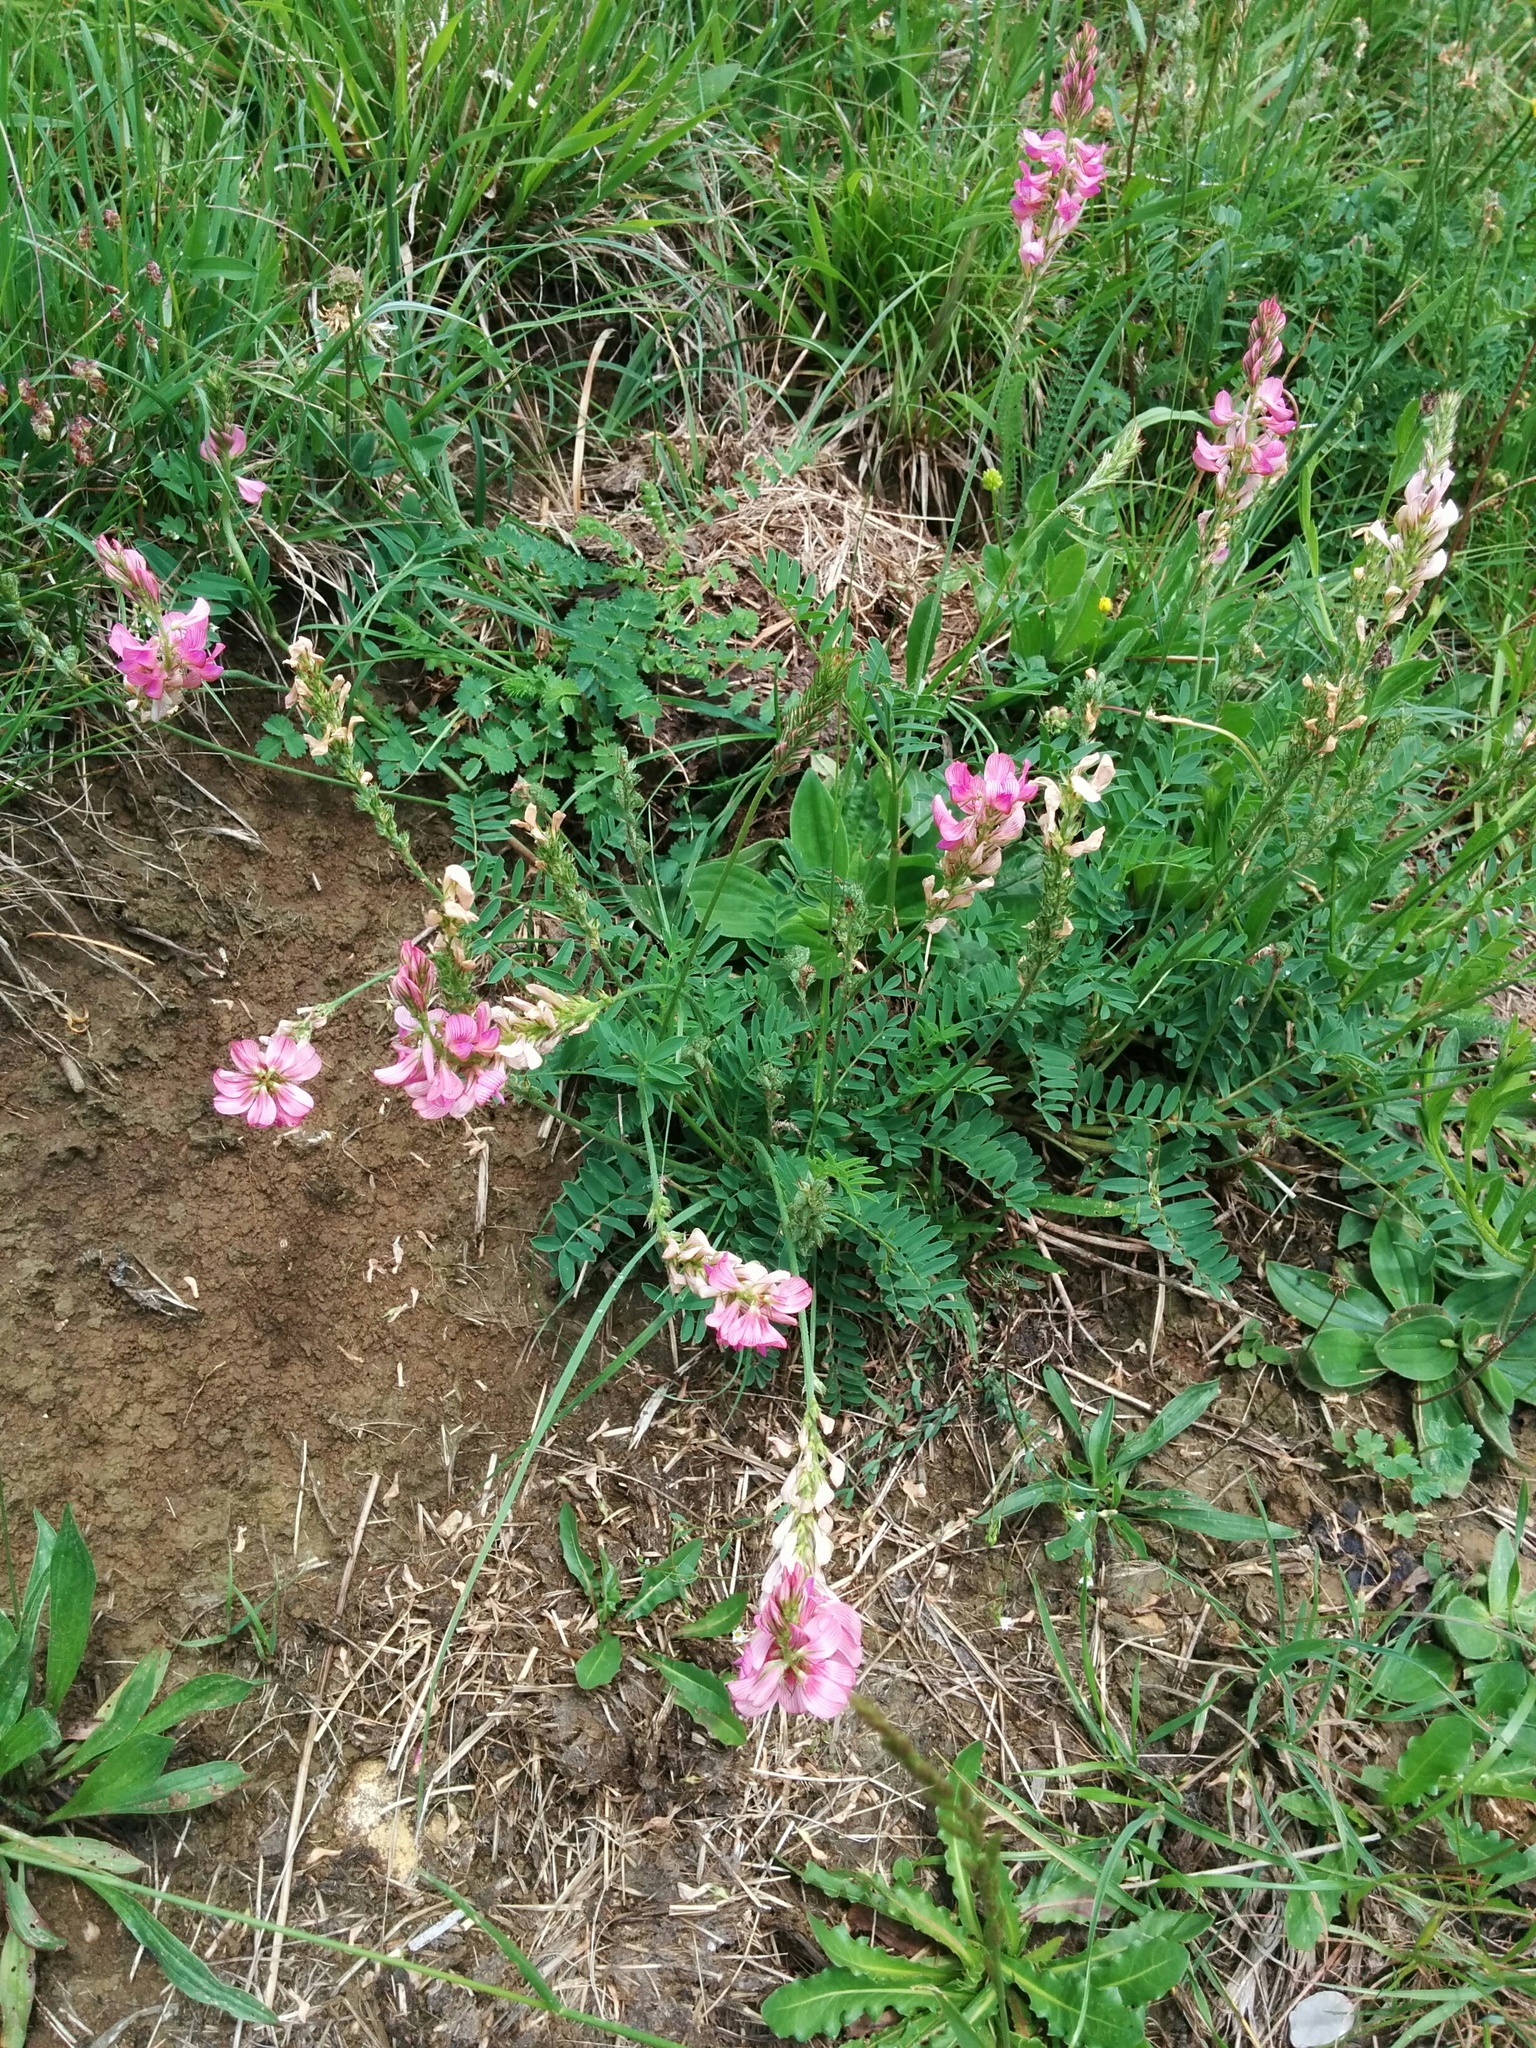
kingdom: Plantae
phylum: Tracheophyta
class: Magnoliopsida
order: Fabales
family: Fabaceae
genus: Onobrychis
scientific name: Onobrychis viciifolia
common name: Sainfoin
